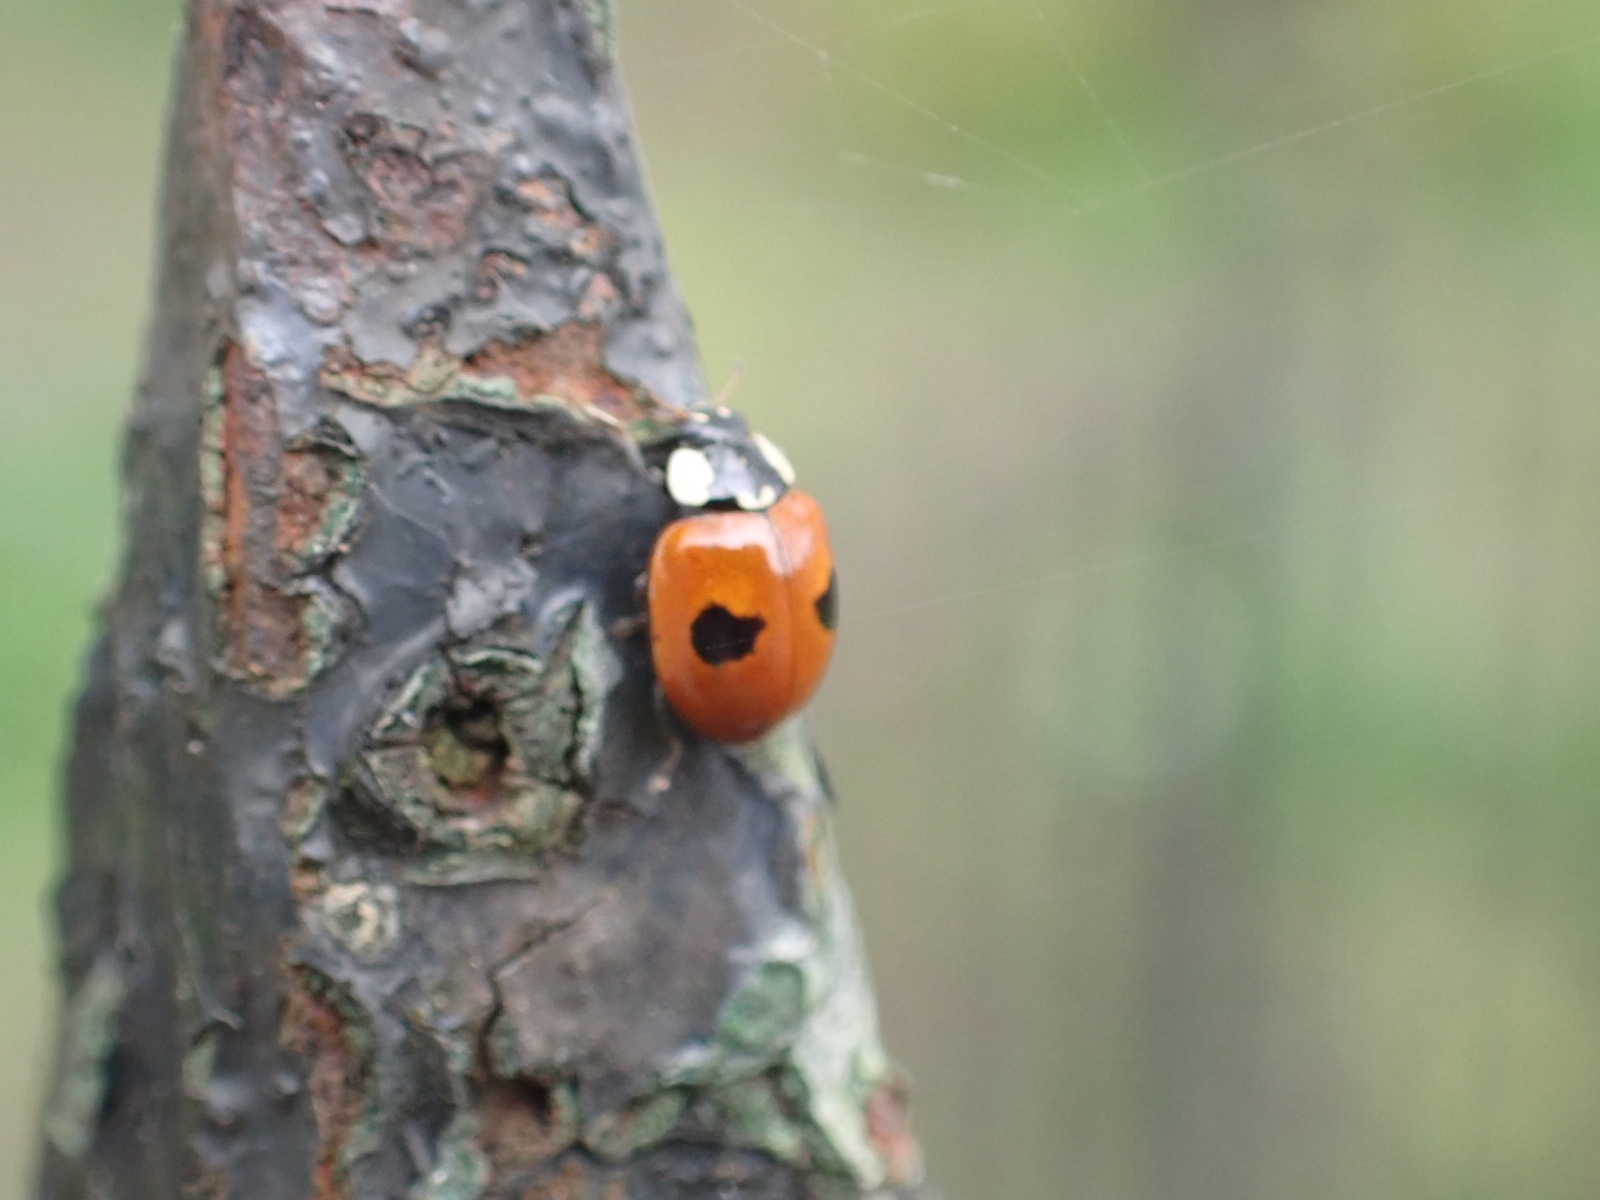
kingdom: Animalia
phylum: Arthropoda
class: Insecta
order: Coleoptera
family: Coccinellidae
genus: Adalia
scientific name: Adalia bipunctata
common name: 2-spot ladybird
